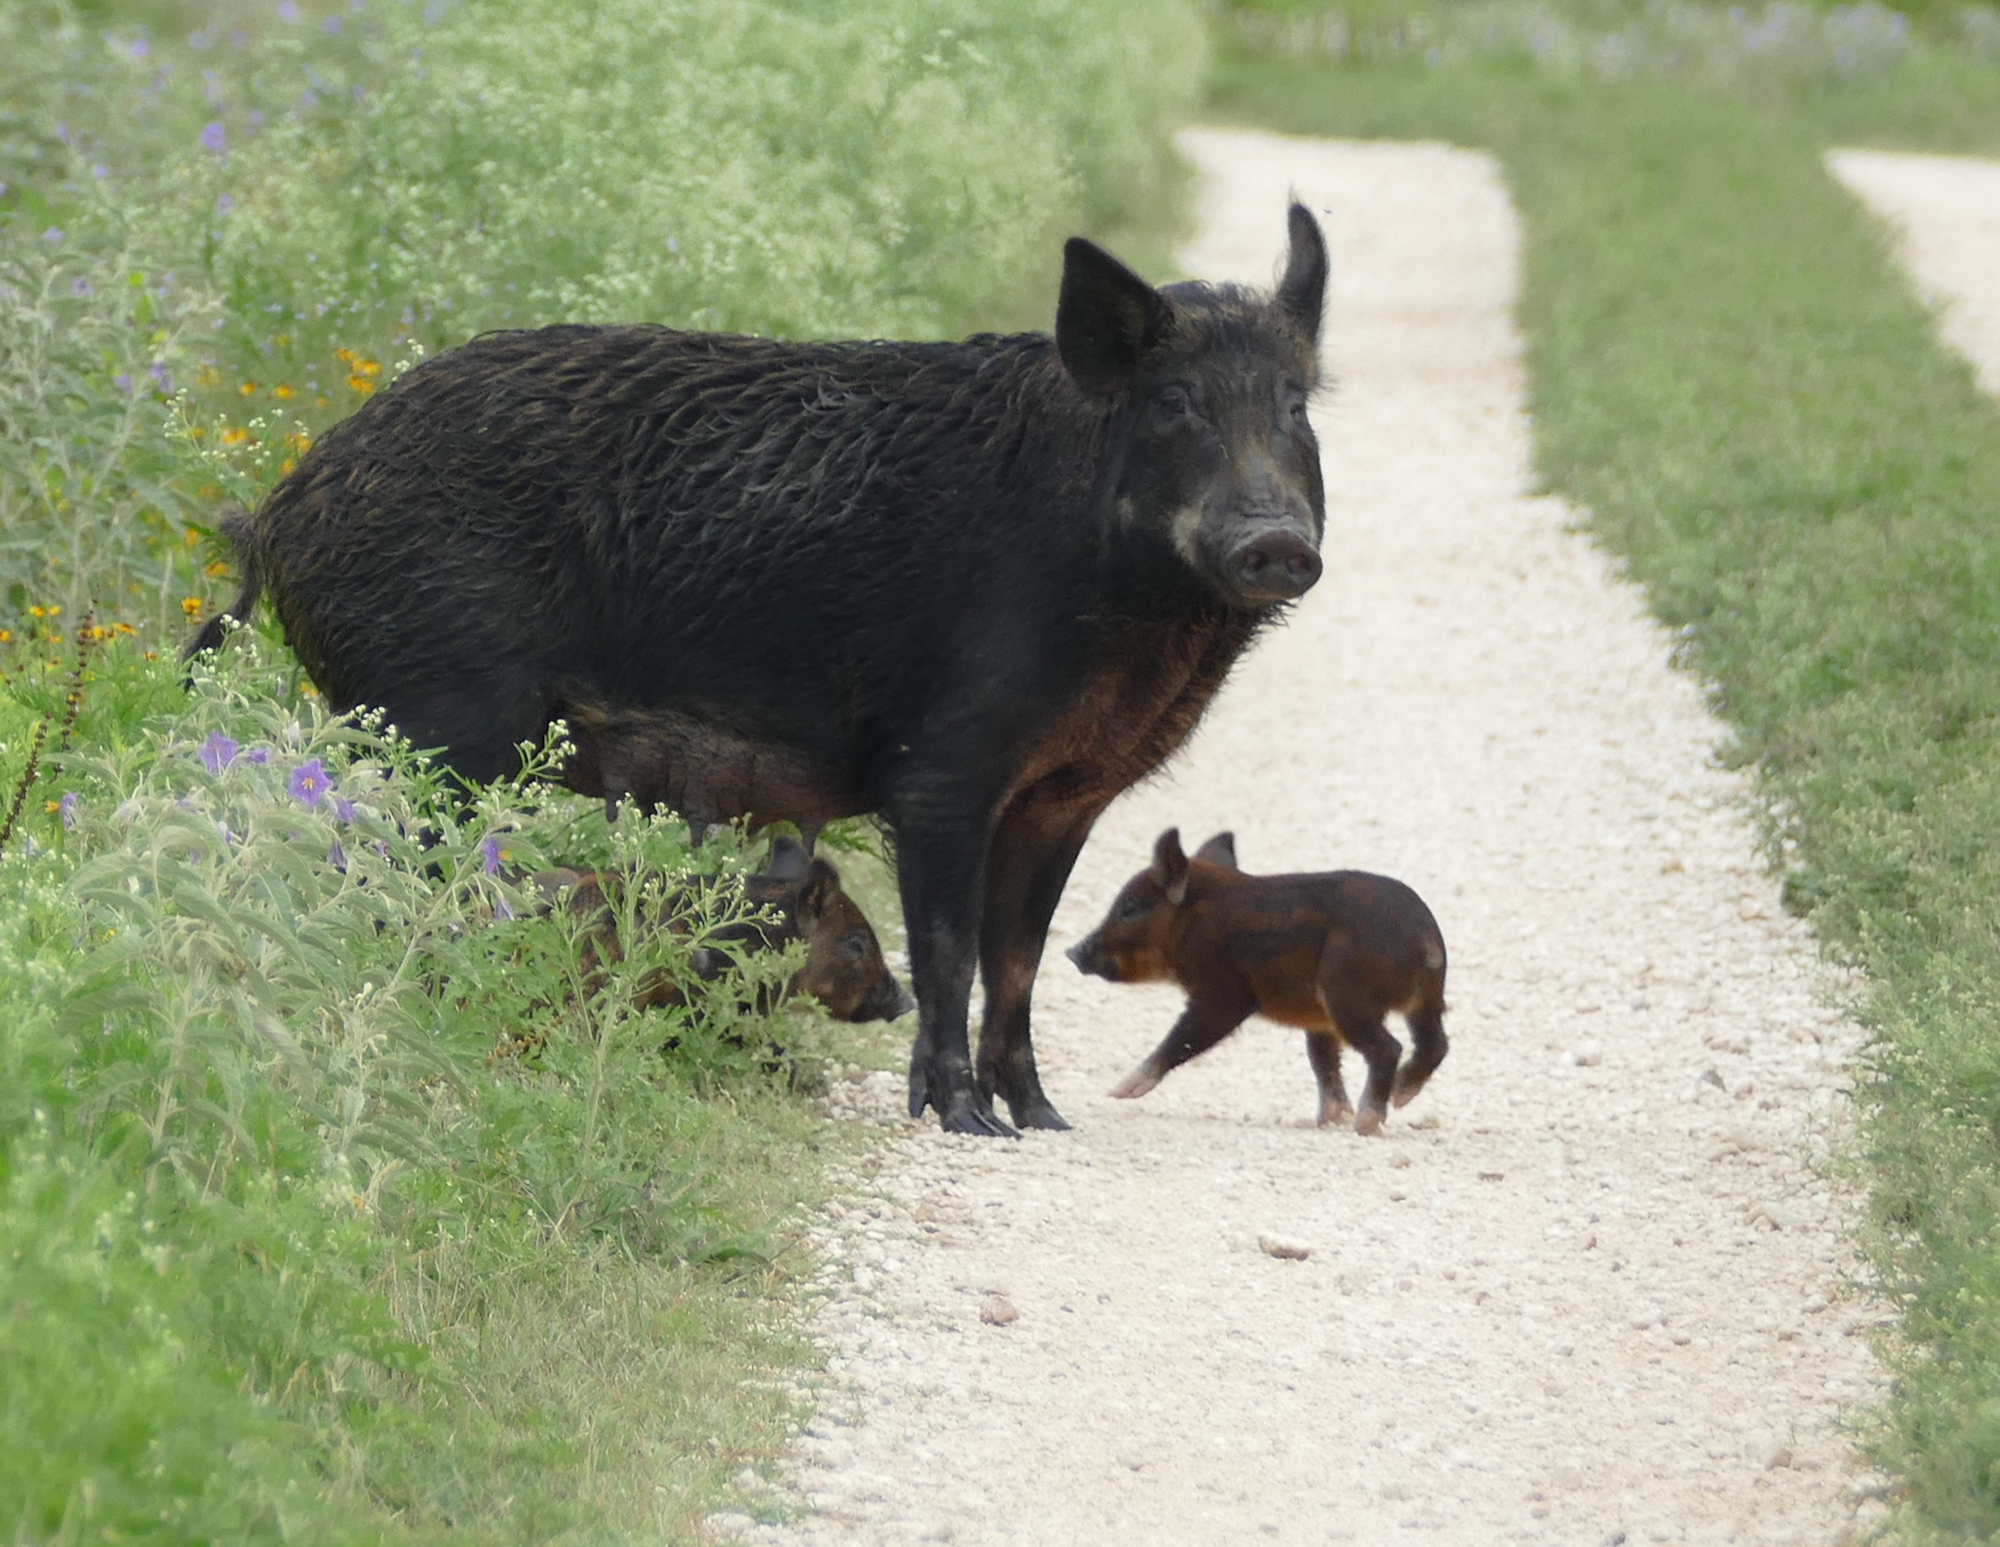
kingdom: Animalia
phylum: Chordata
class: Mammalia
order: Artiodactyla
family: Suidae
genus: Sus
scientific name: Sus scrofa
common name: Wild boar
